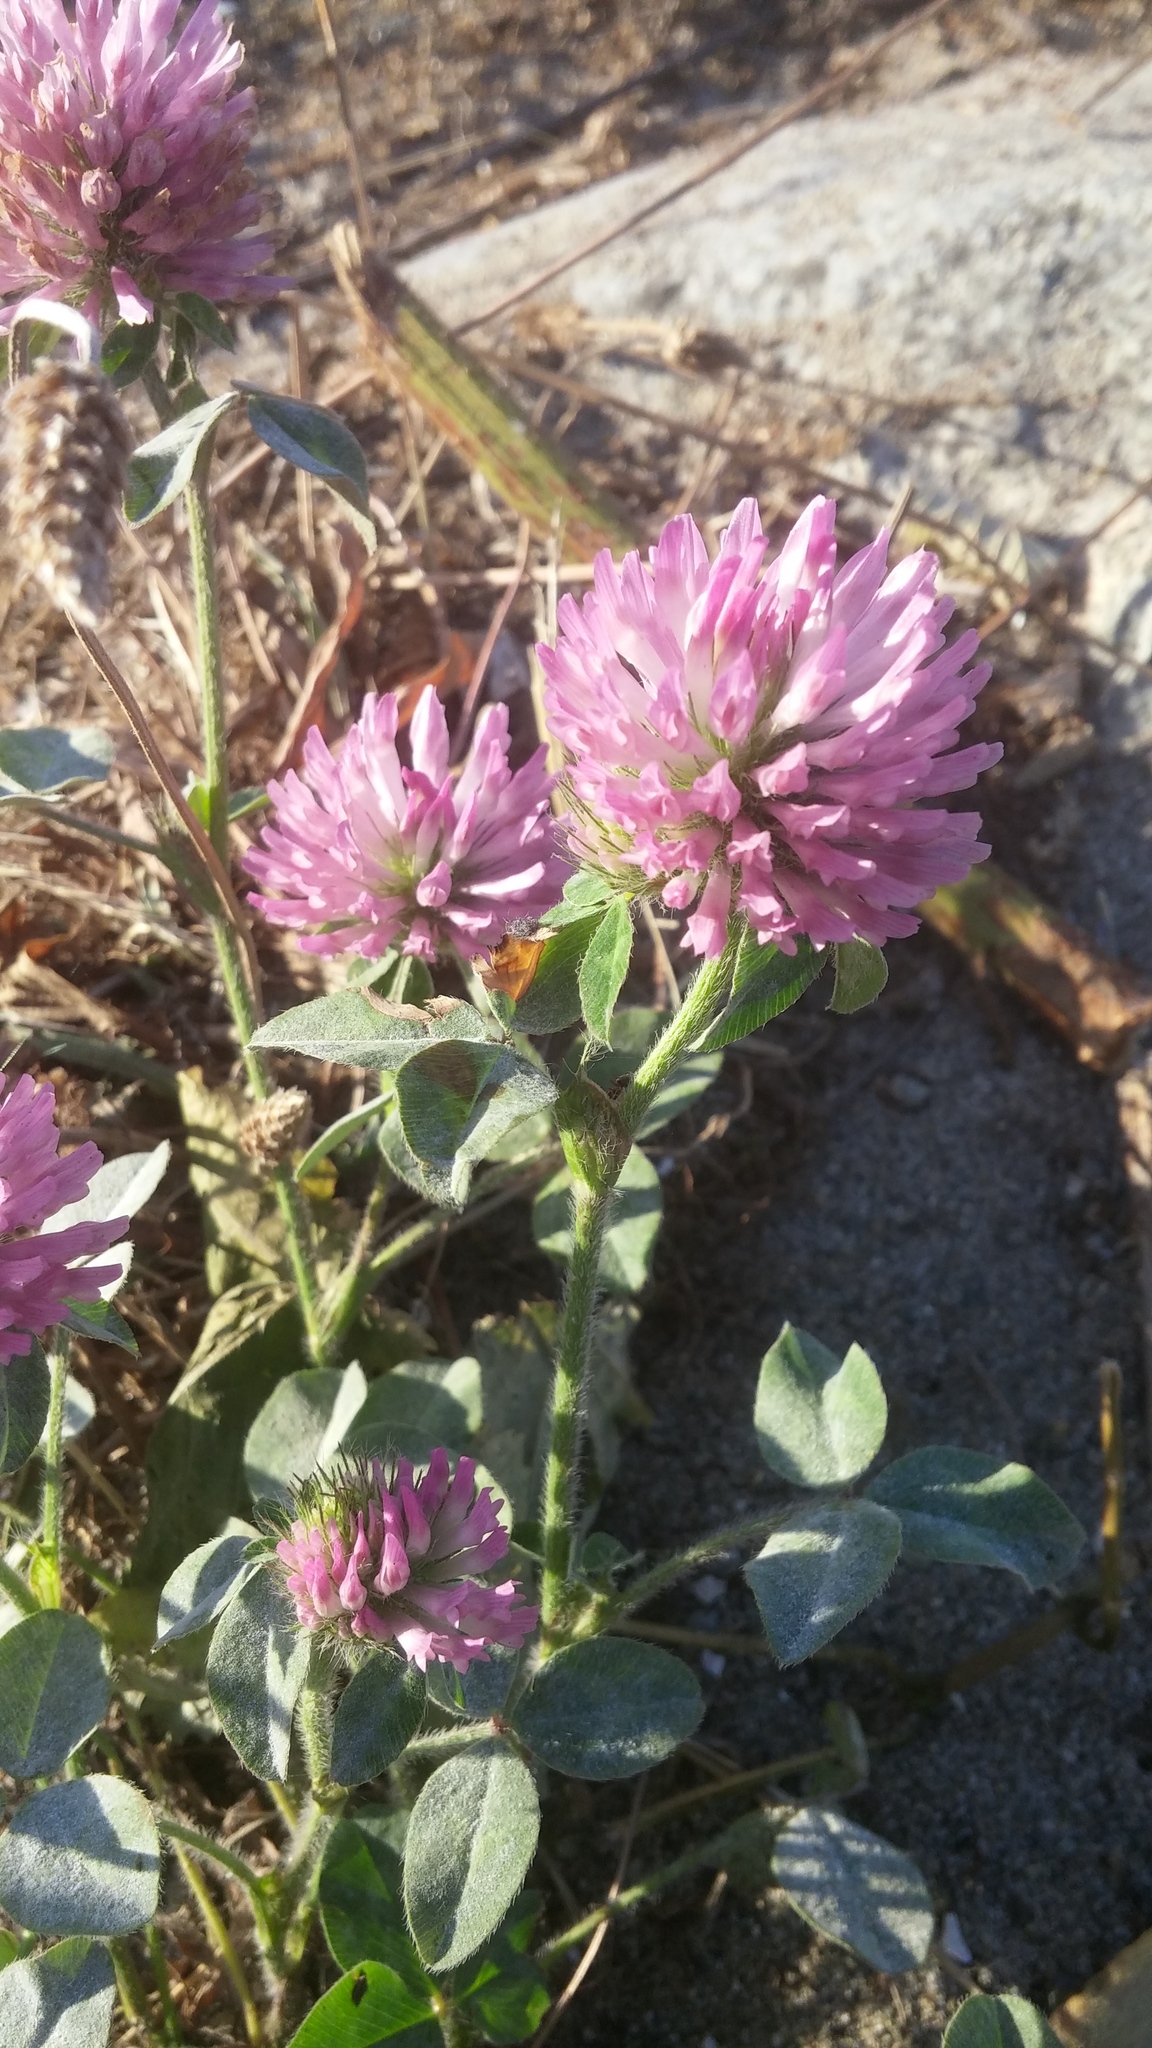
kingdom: Plantae
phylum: Tracheophyta
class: Magnoliopsida
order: Fabales
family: Fabaceae
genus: Trifolium
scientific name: Trifolium pratense
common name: Red clover
